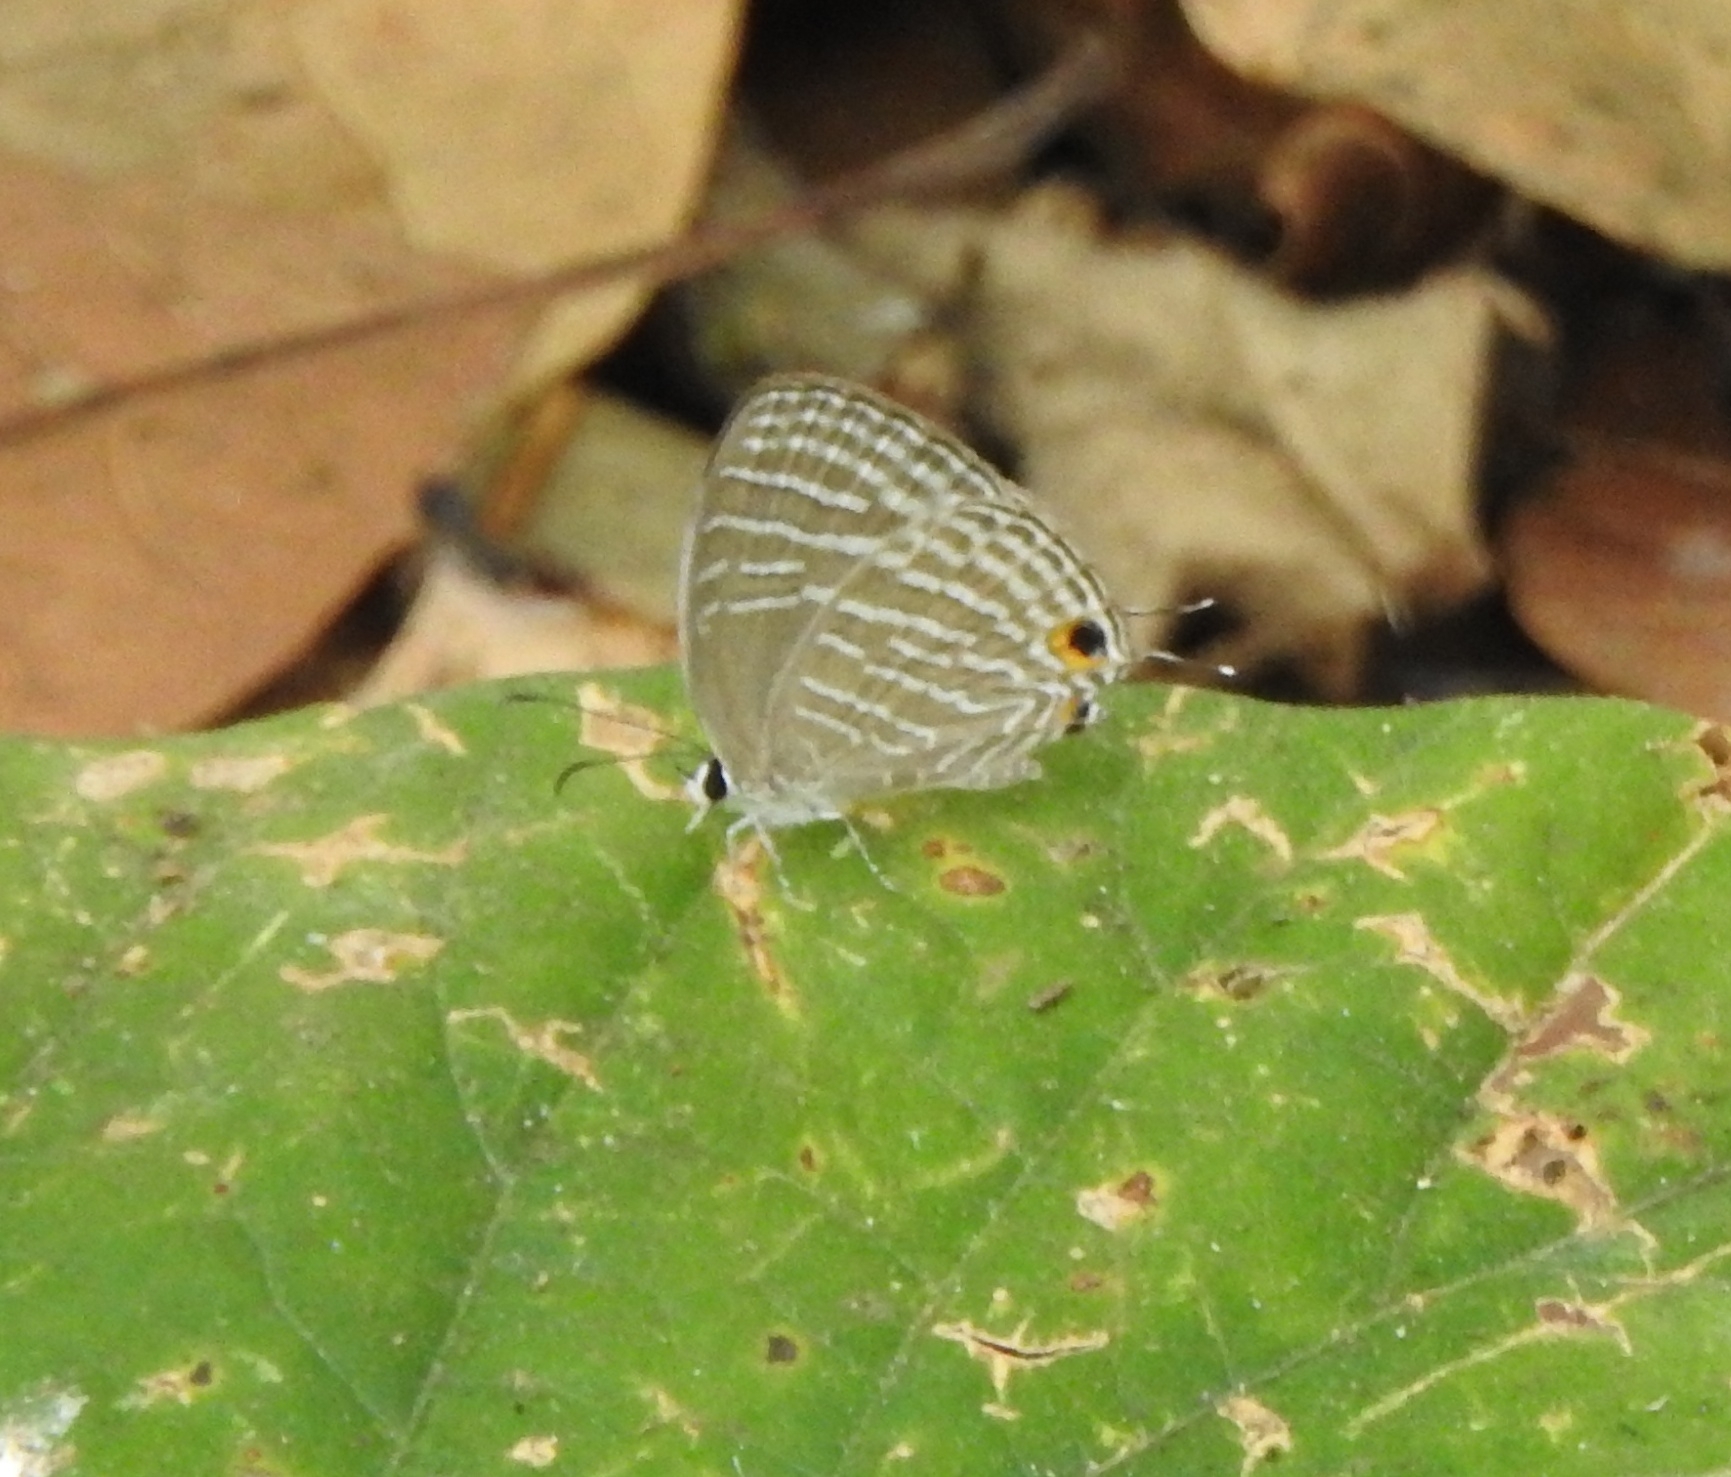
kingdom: Animalia
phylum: Arthropoda
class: Insecta
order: Lepidoptera
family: Lycaenidae
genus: Jamides
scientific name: Jamides celeno
